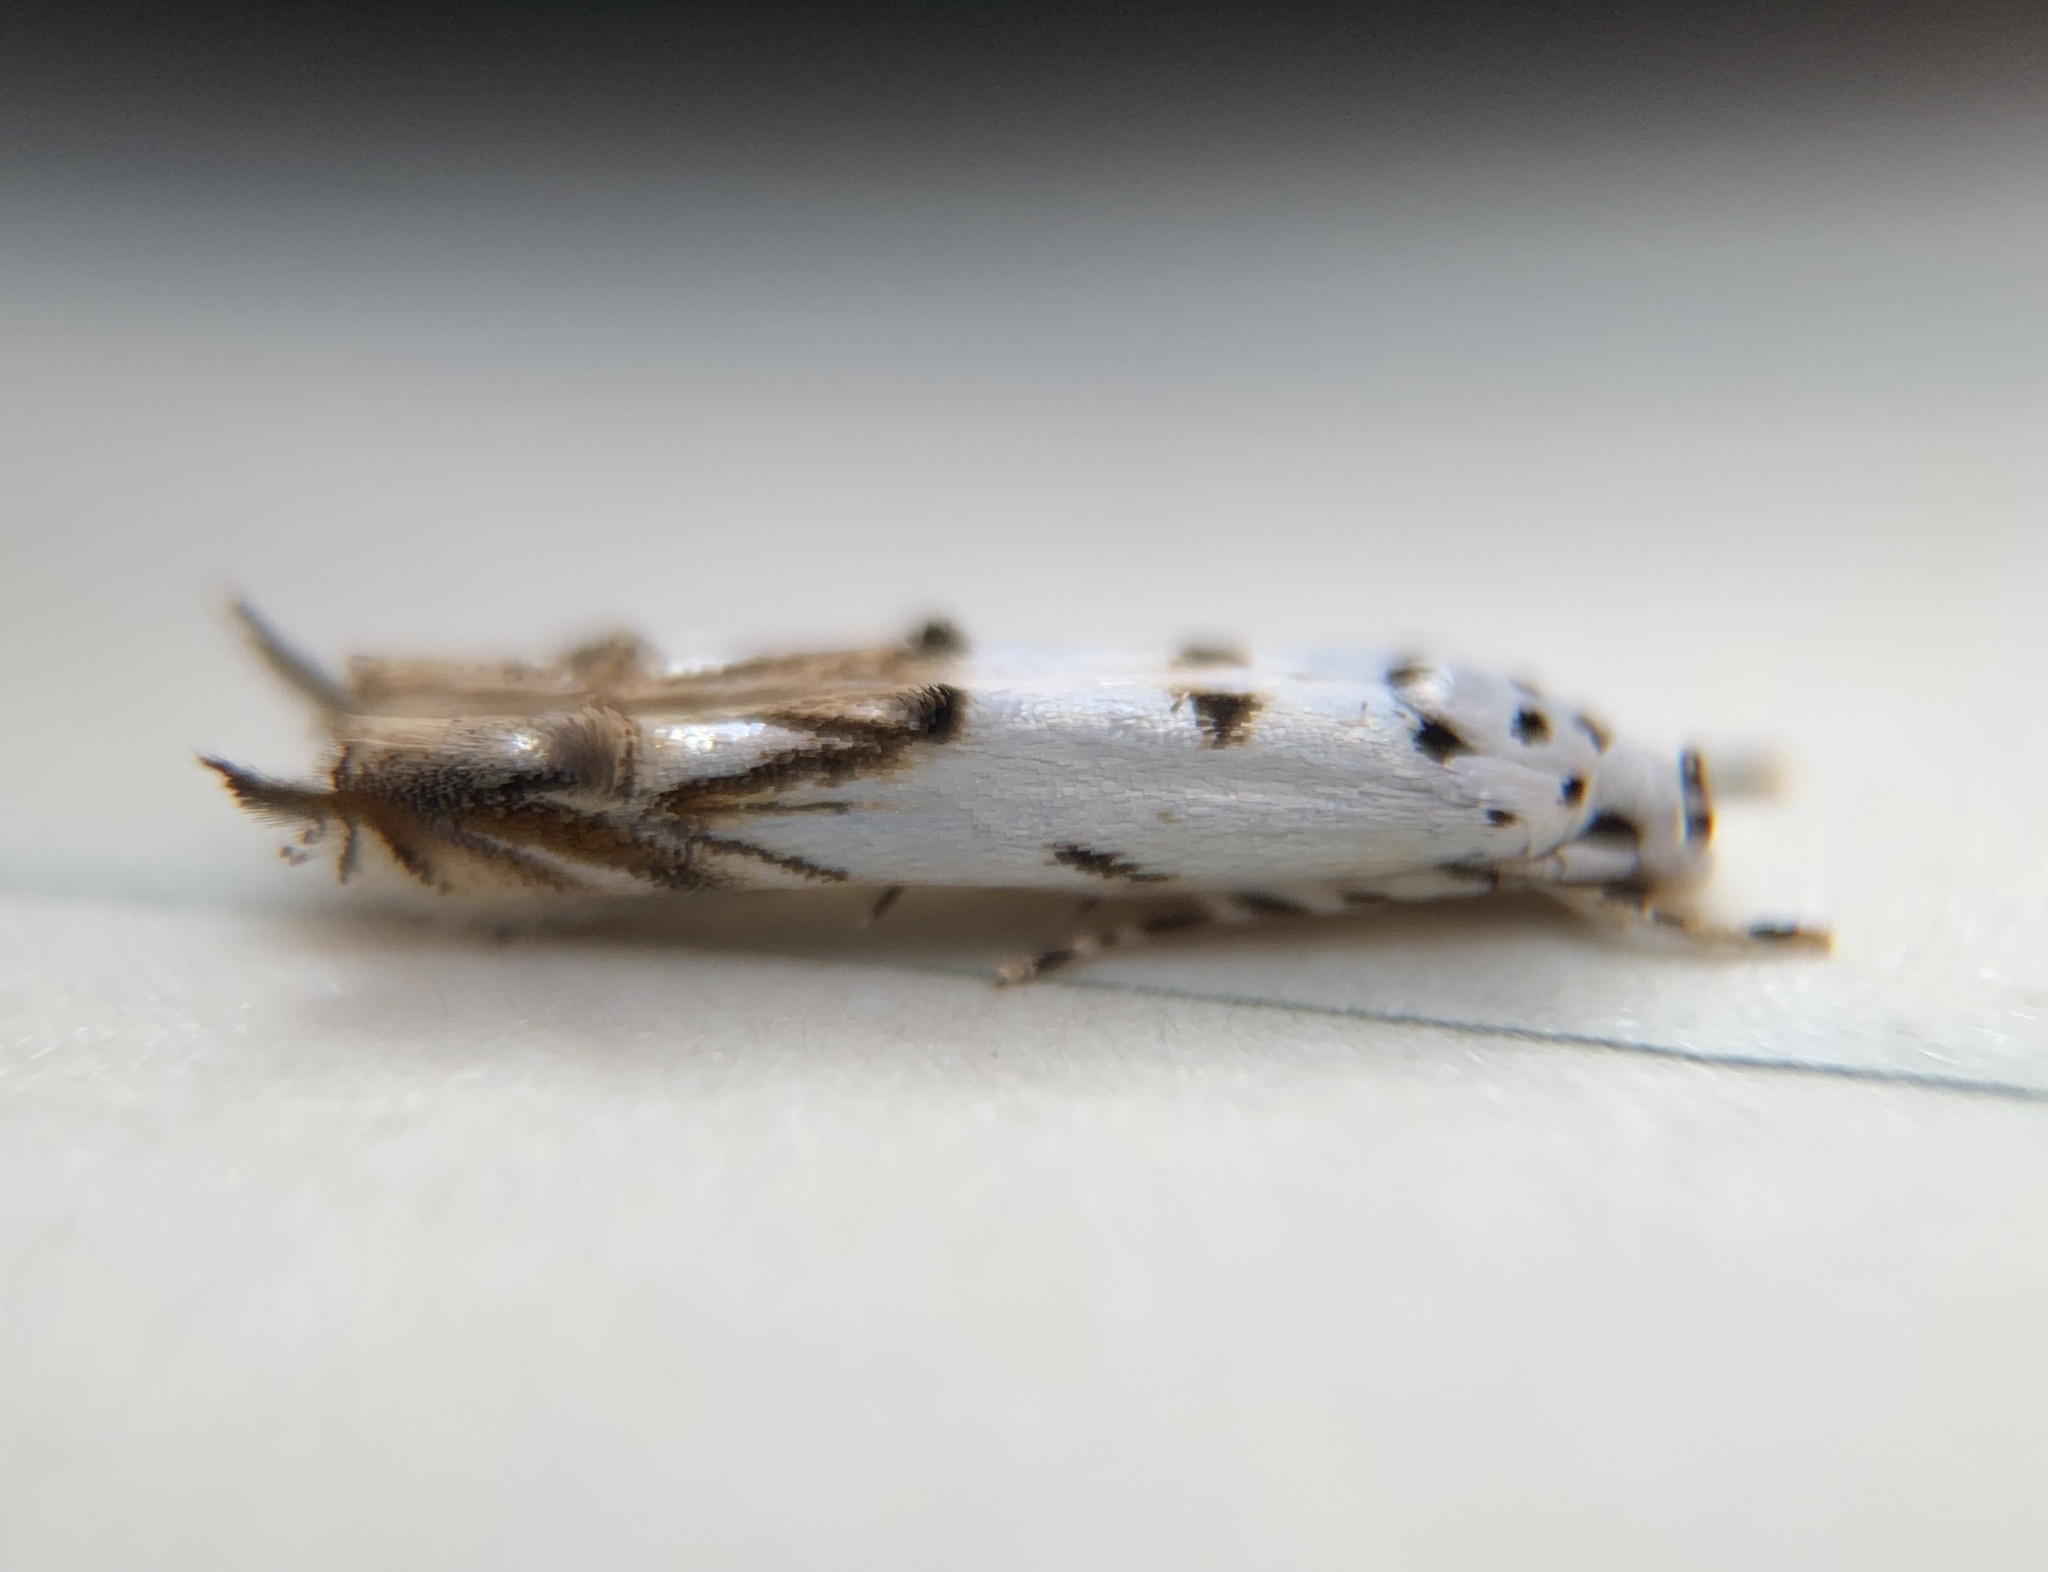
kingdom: Animalia
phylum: Arthropoda
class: Insecta
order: Lepidoptera
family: Momphidae
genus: Mompha
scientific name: Mompha eloisella
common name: Red-streaked mompha moth
